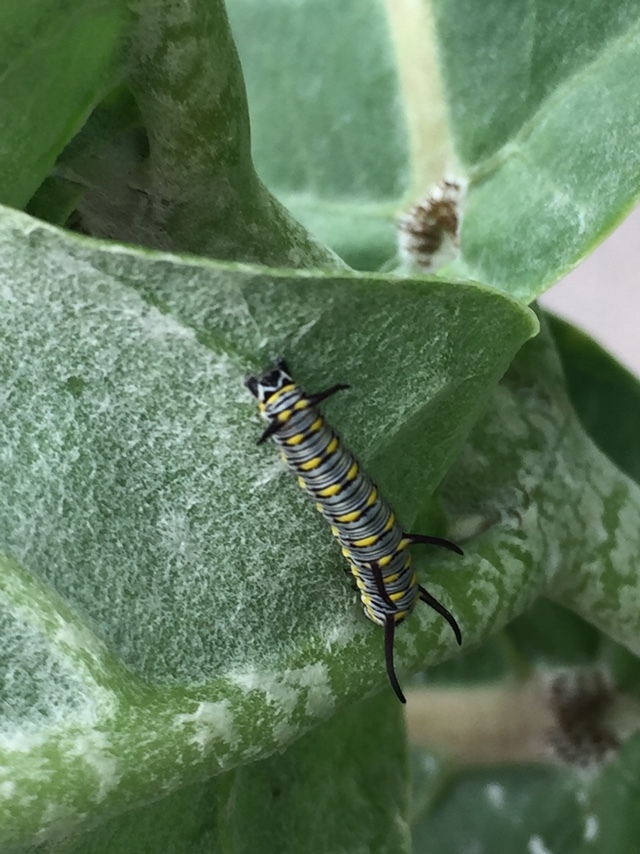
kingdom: Animalia
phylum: Arthropoda
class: Insecta
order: Lepidoptera
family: Nymphalidae
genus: Danaus
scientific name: Danaus chrysippus
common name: Plain tiger
